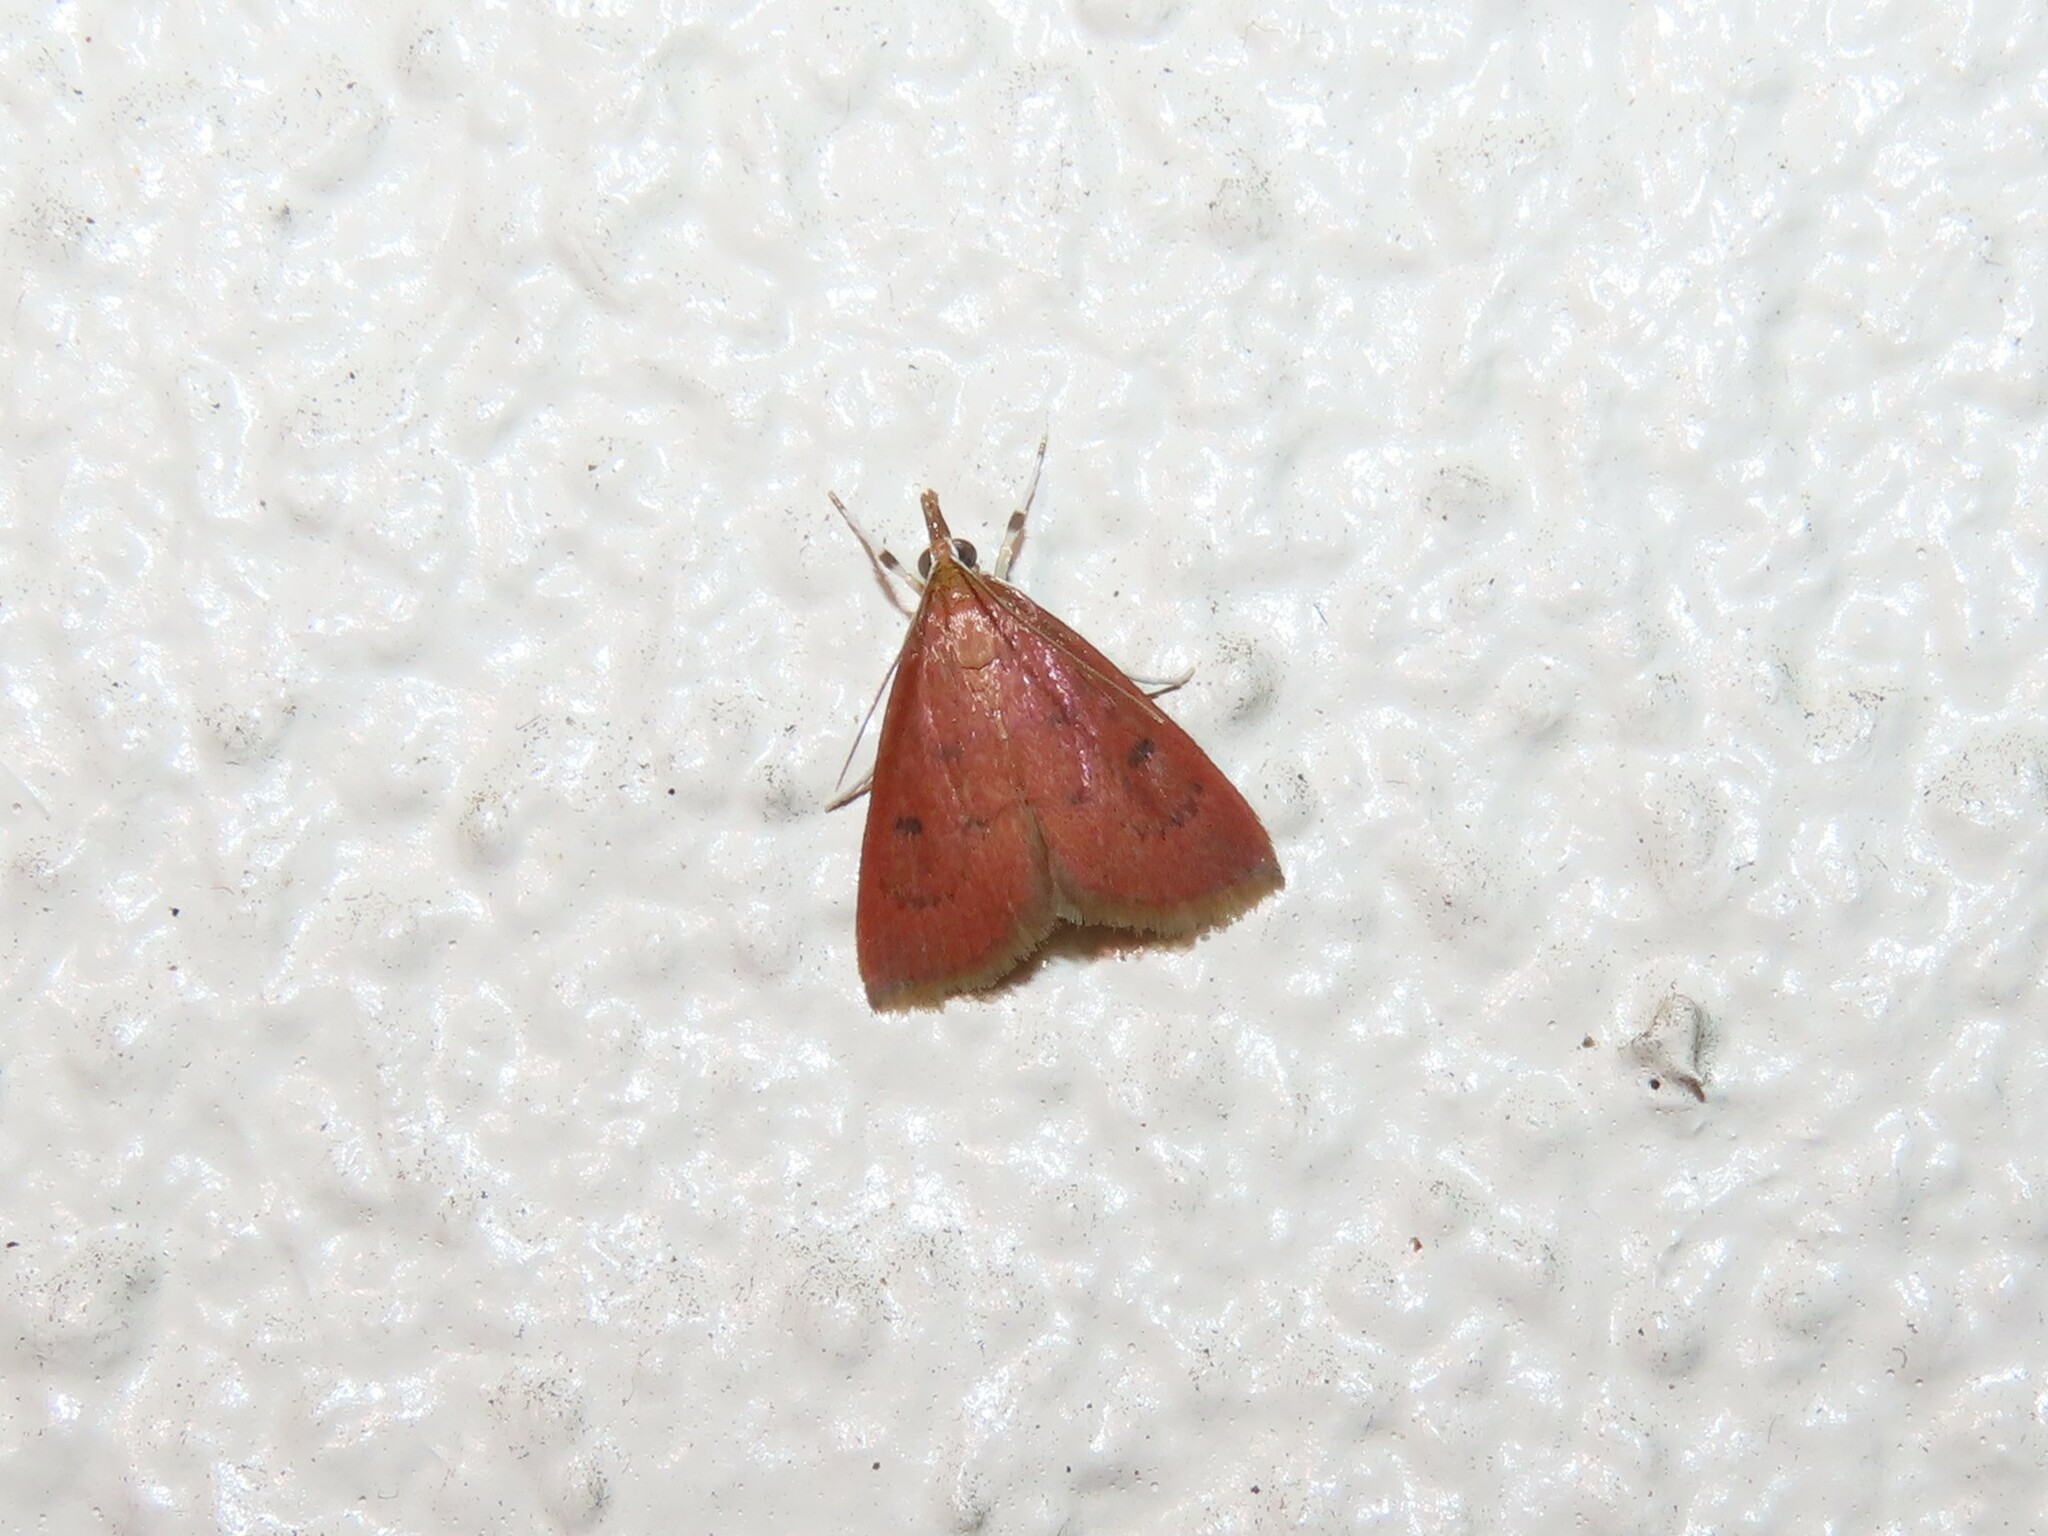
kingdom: Animalia
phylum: Arthropoda
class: Insecta
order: Lepidoptera
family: Crambidae
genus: Oenobotys
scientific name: Oenobotys vinotinctalis
